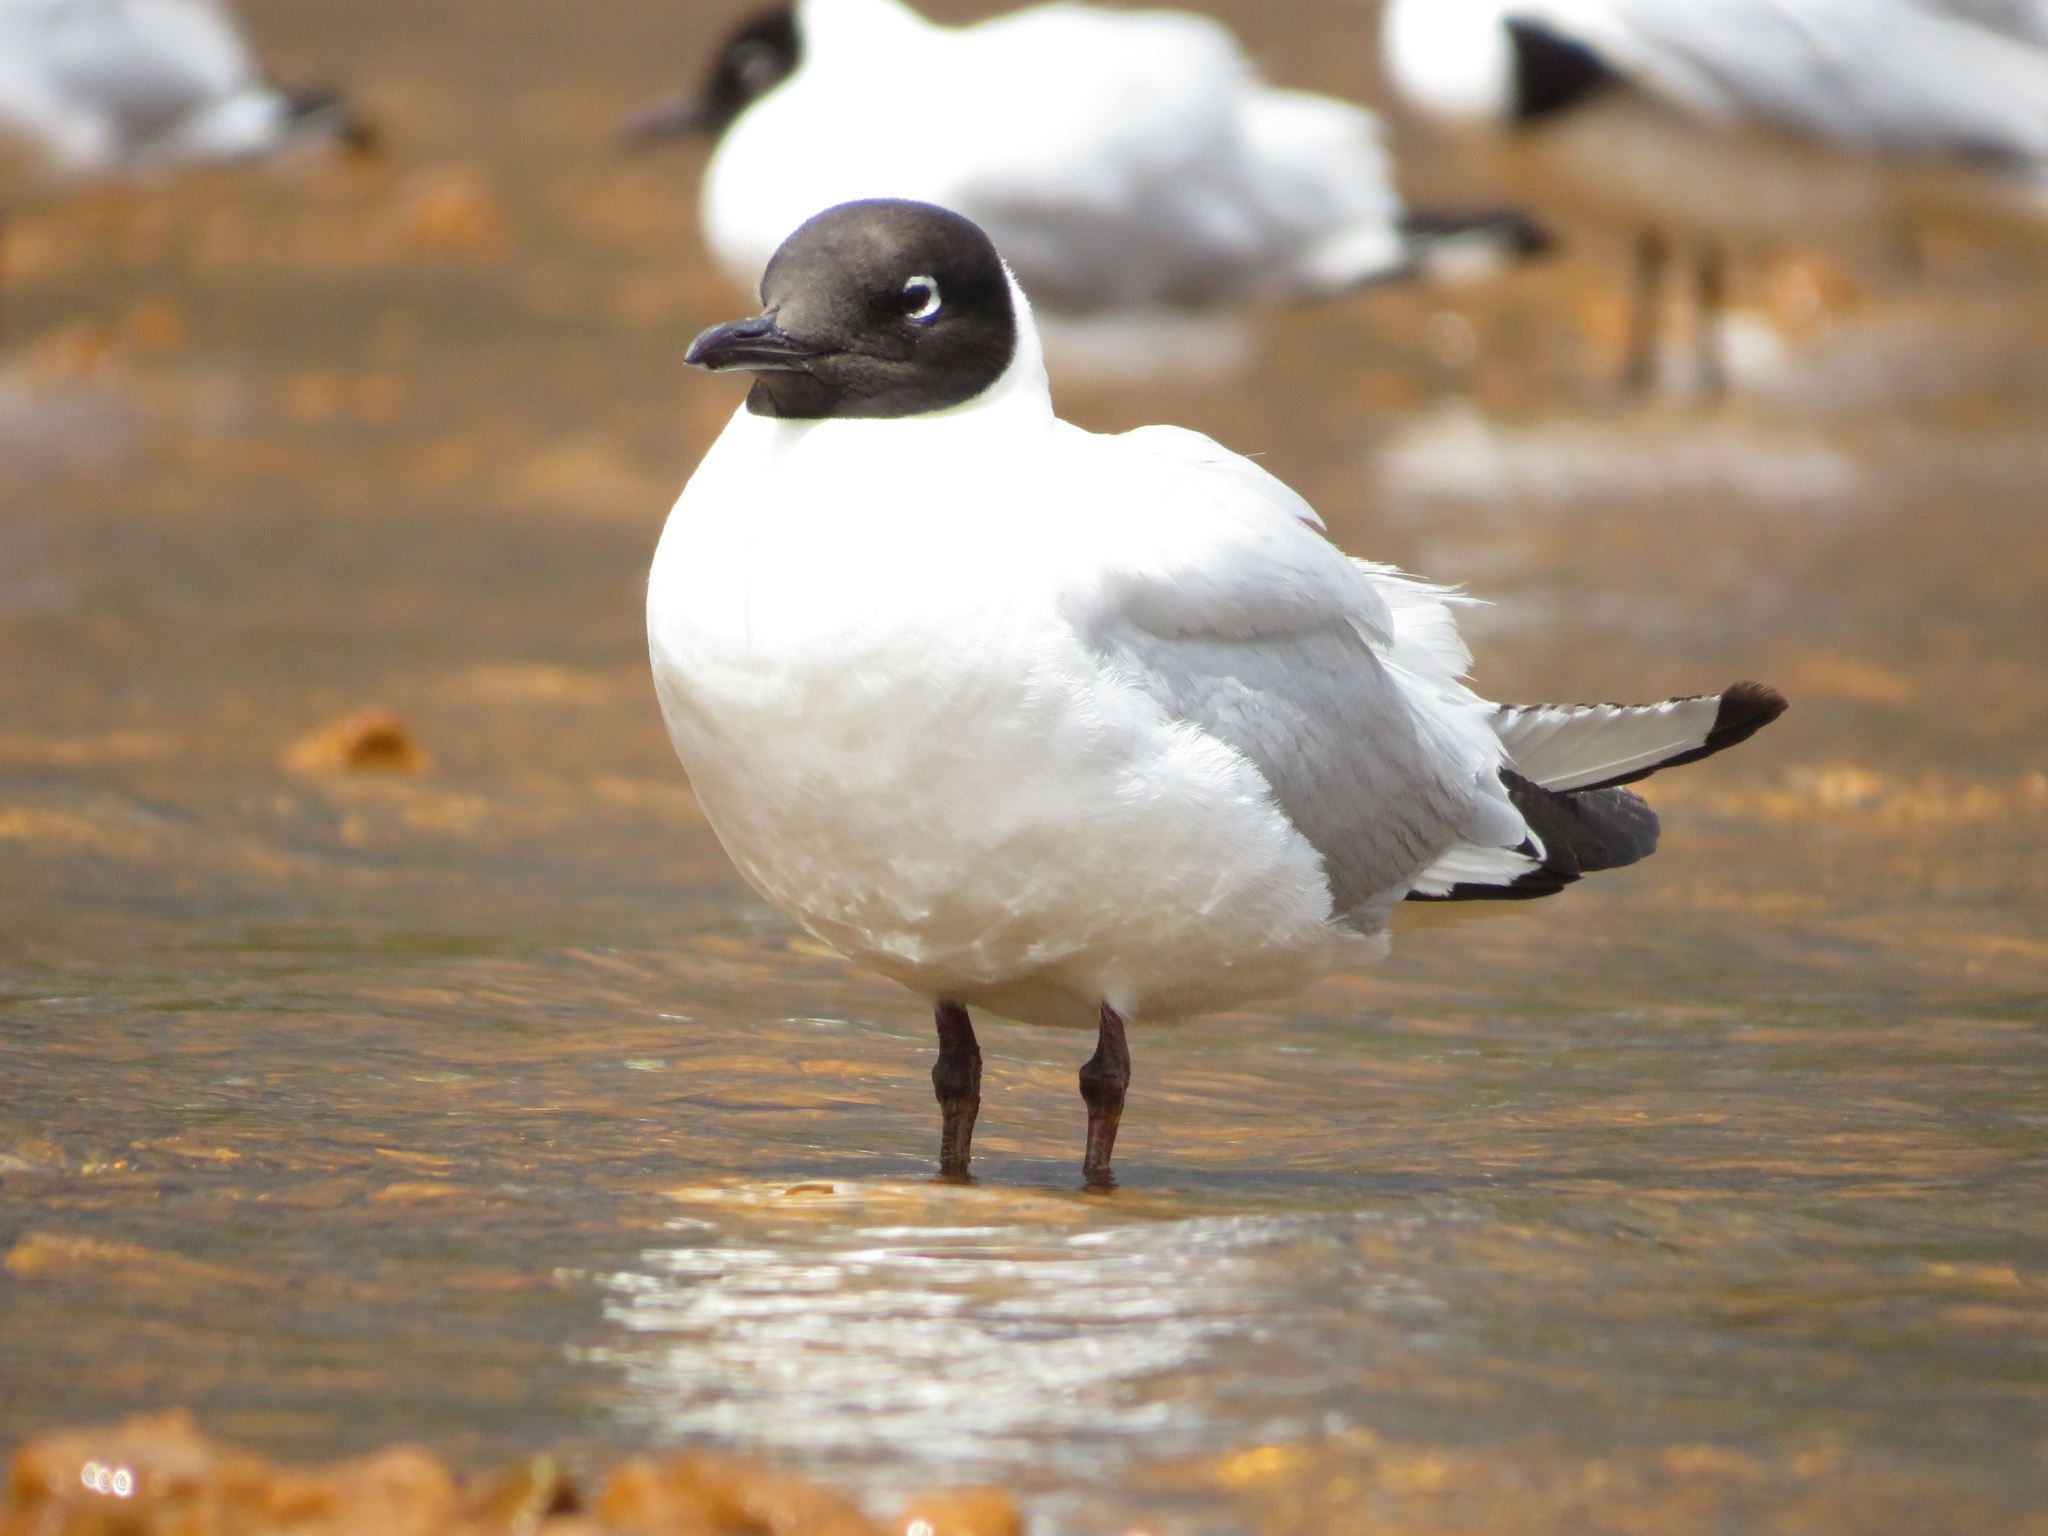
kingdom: Animalia
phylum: Chordata
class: Aves
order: Charadriiformes
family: Laridae
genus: Chroicocephalus
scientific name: Chroicocephalus serranus
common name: Andean gull
